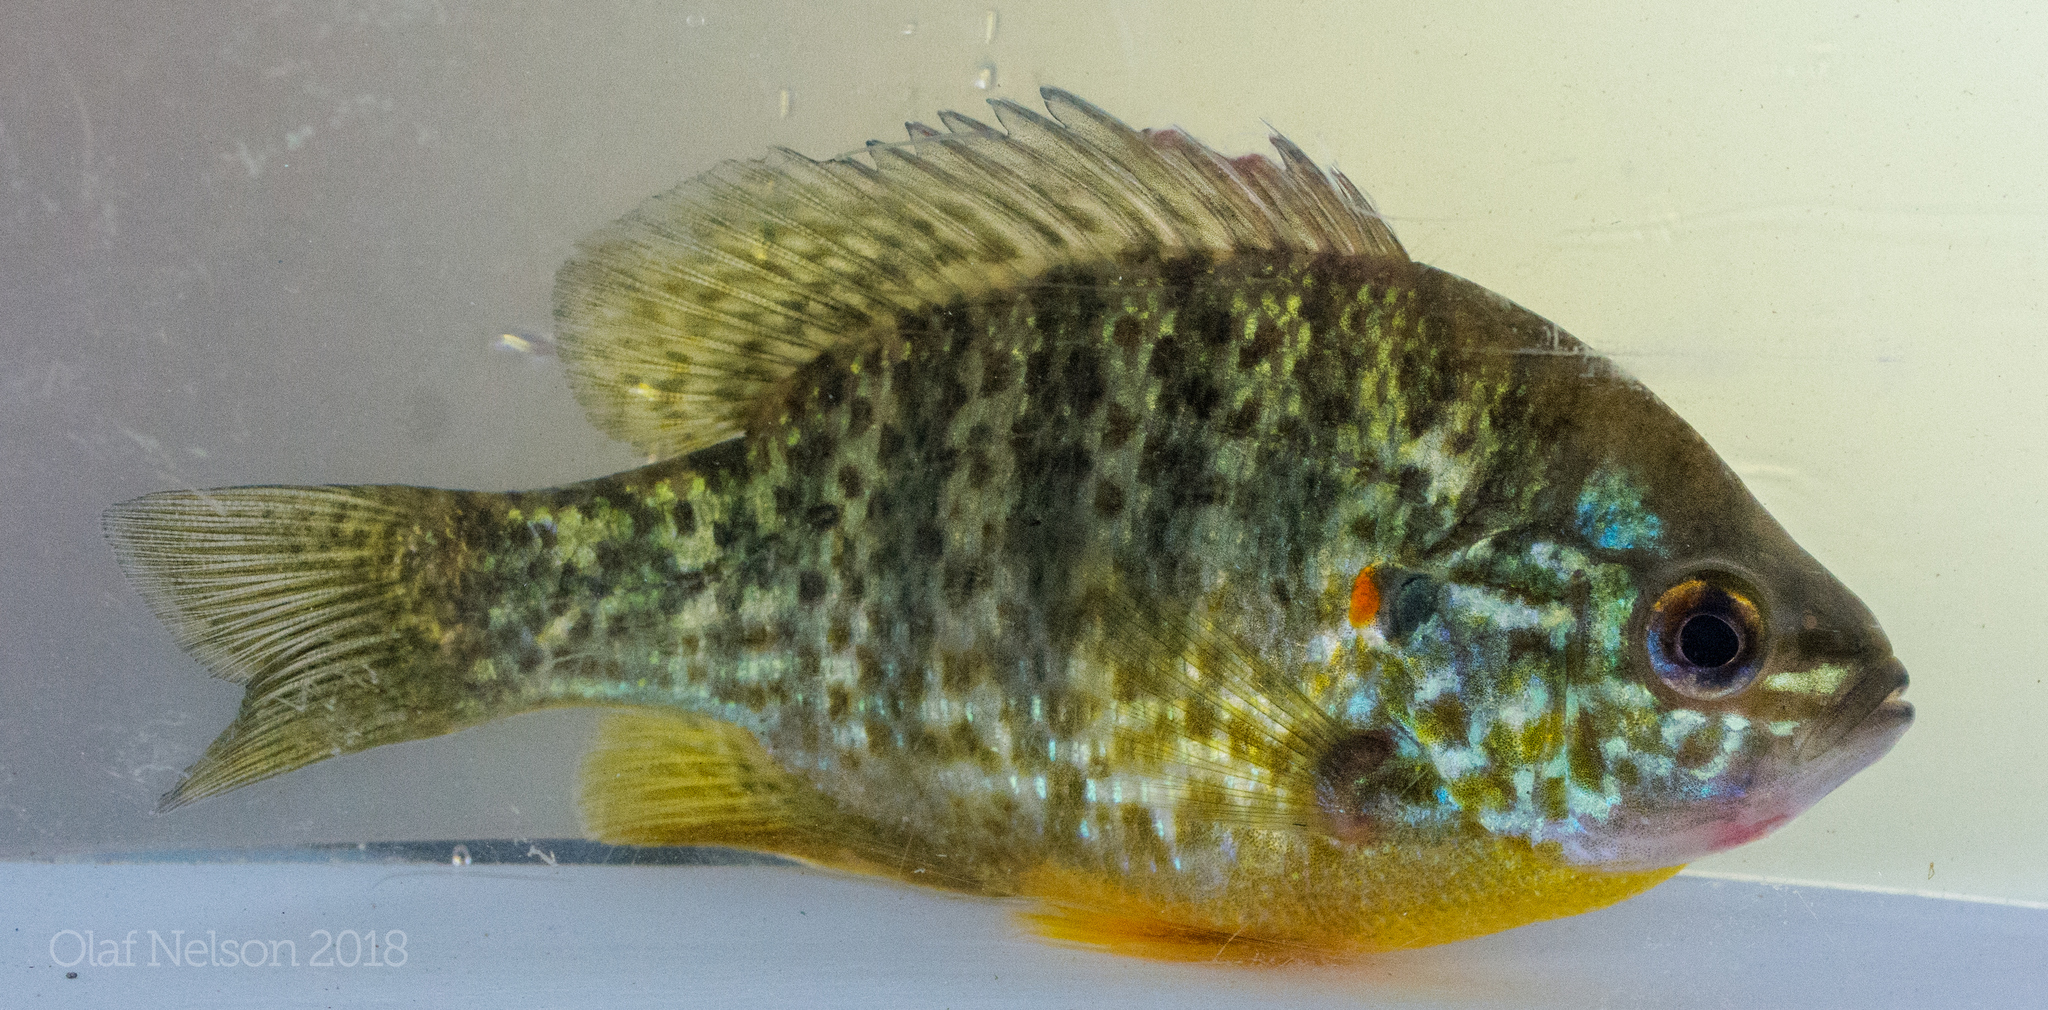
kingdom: Animalia
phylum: Chordata
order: Perciformes
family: Centrarchidae
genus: Lepomis
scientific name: Lepomis gibbosus
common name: Pumpkinseed
